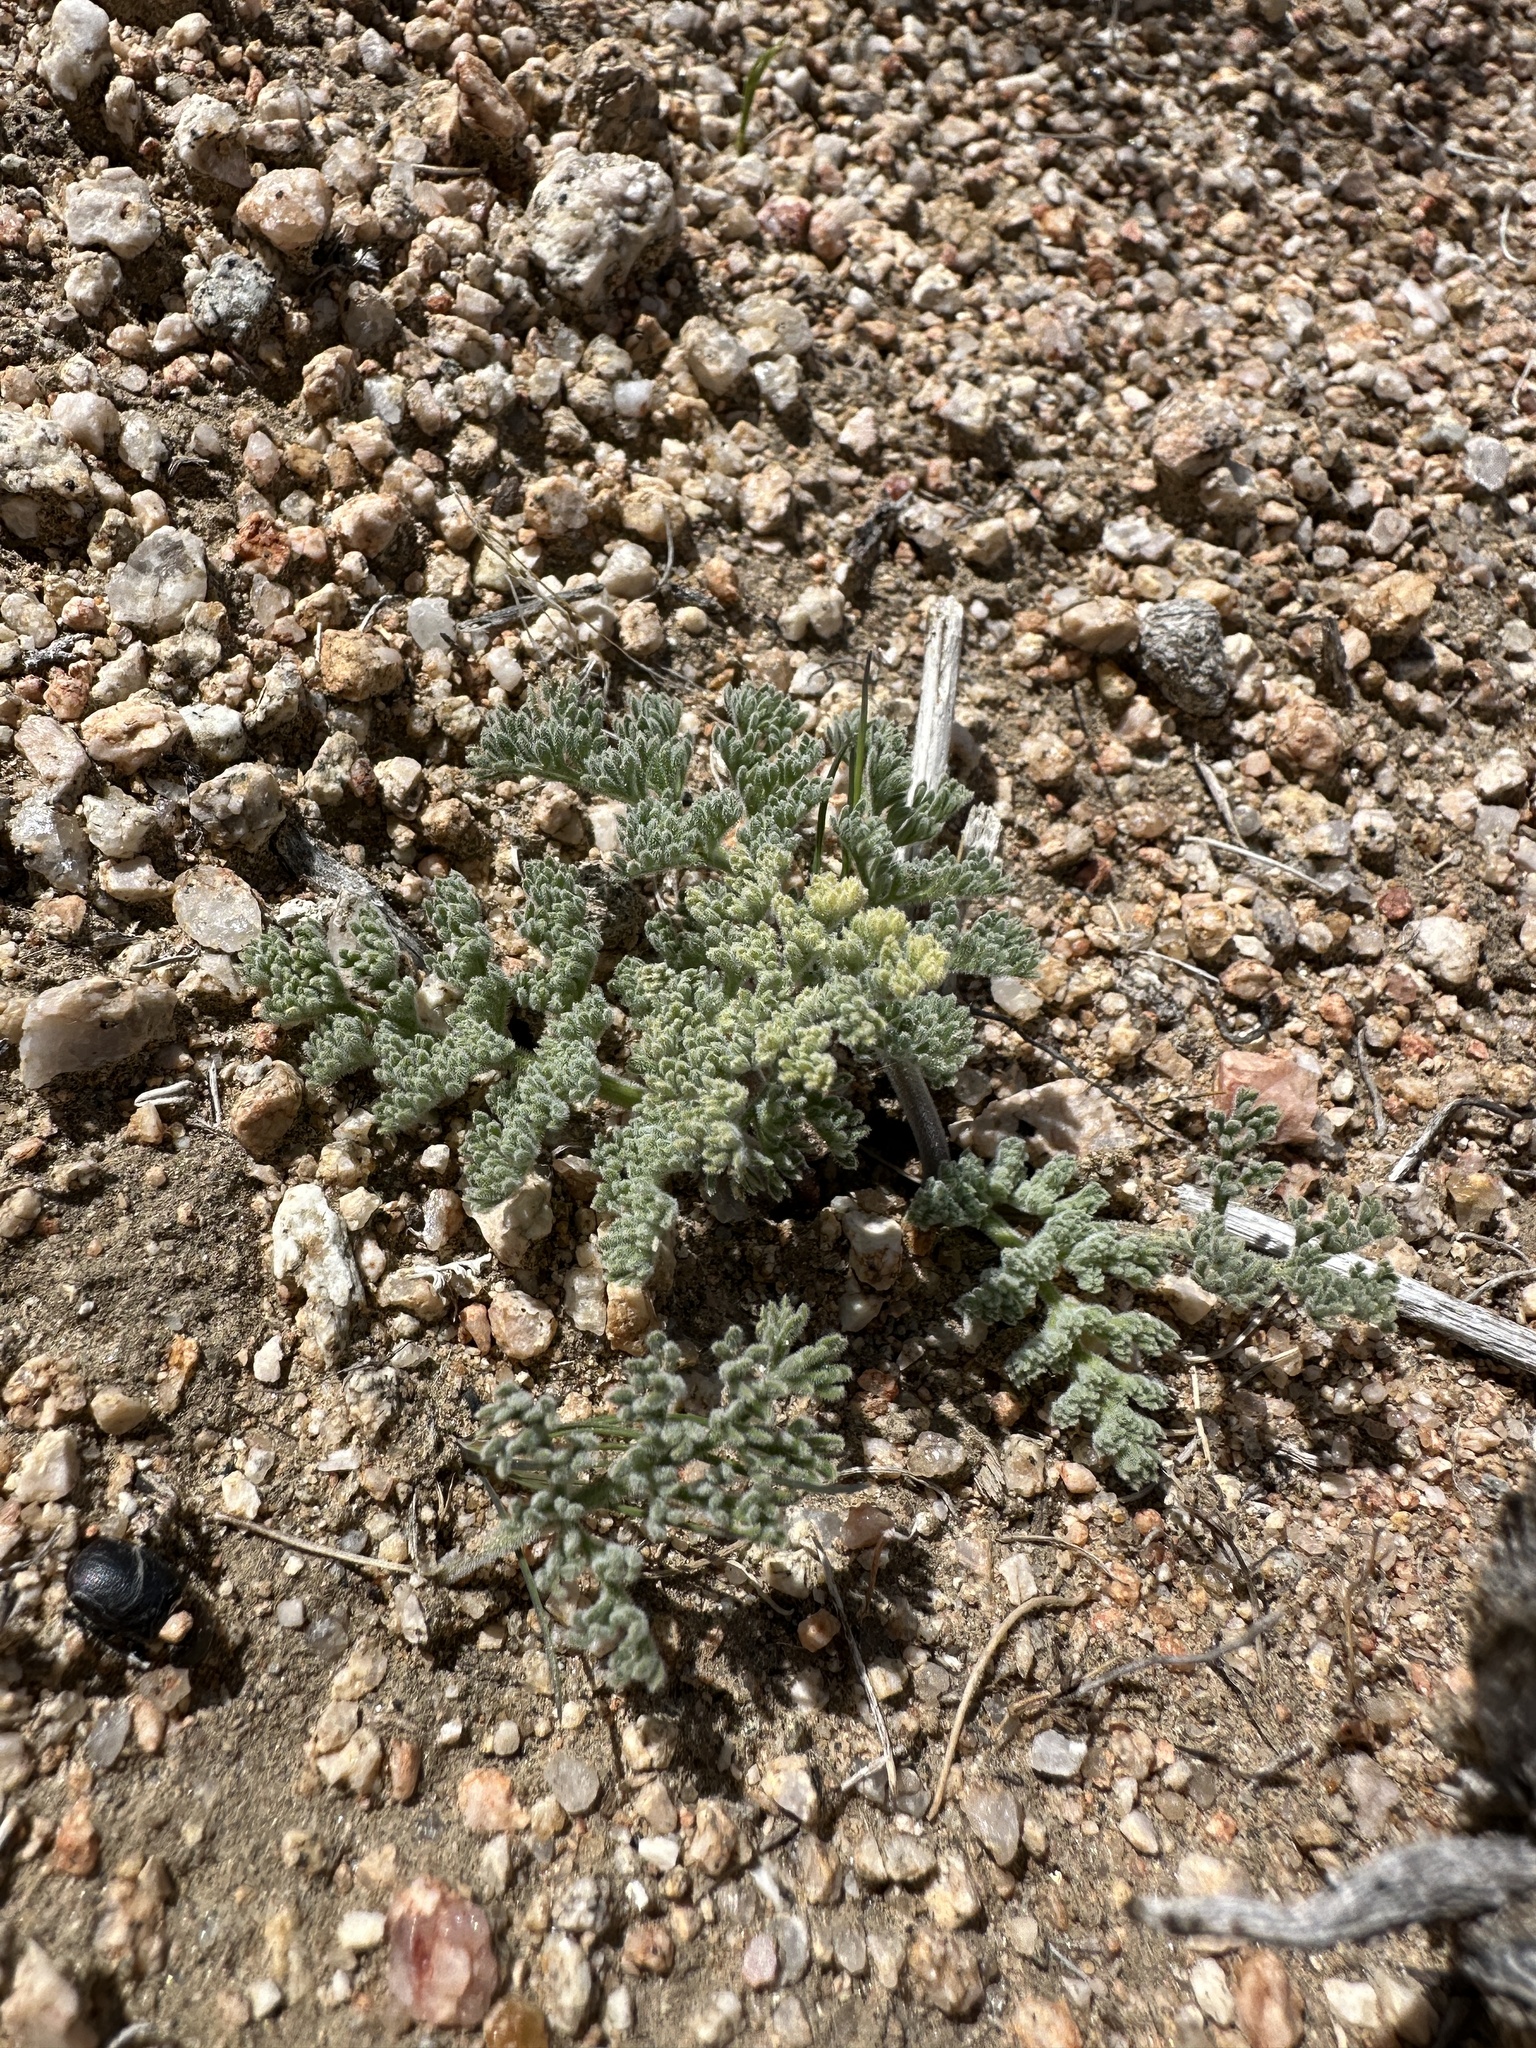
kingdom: Plantae
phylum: Tracheophyta
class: Magnoliopsida
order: Apiales
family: Apiaceae
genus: Lomatium
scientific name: Lomatium mohavense
